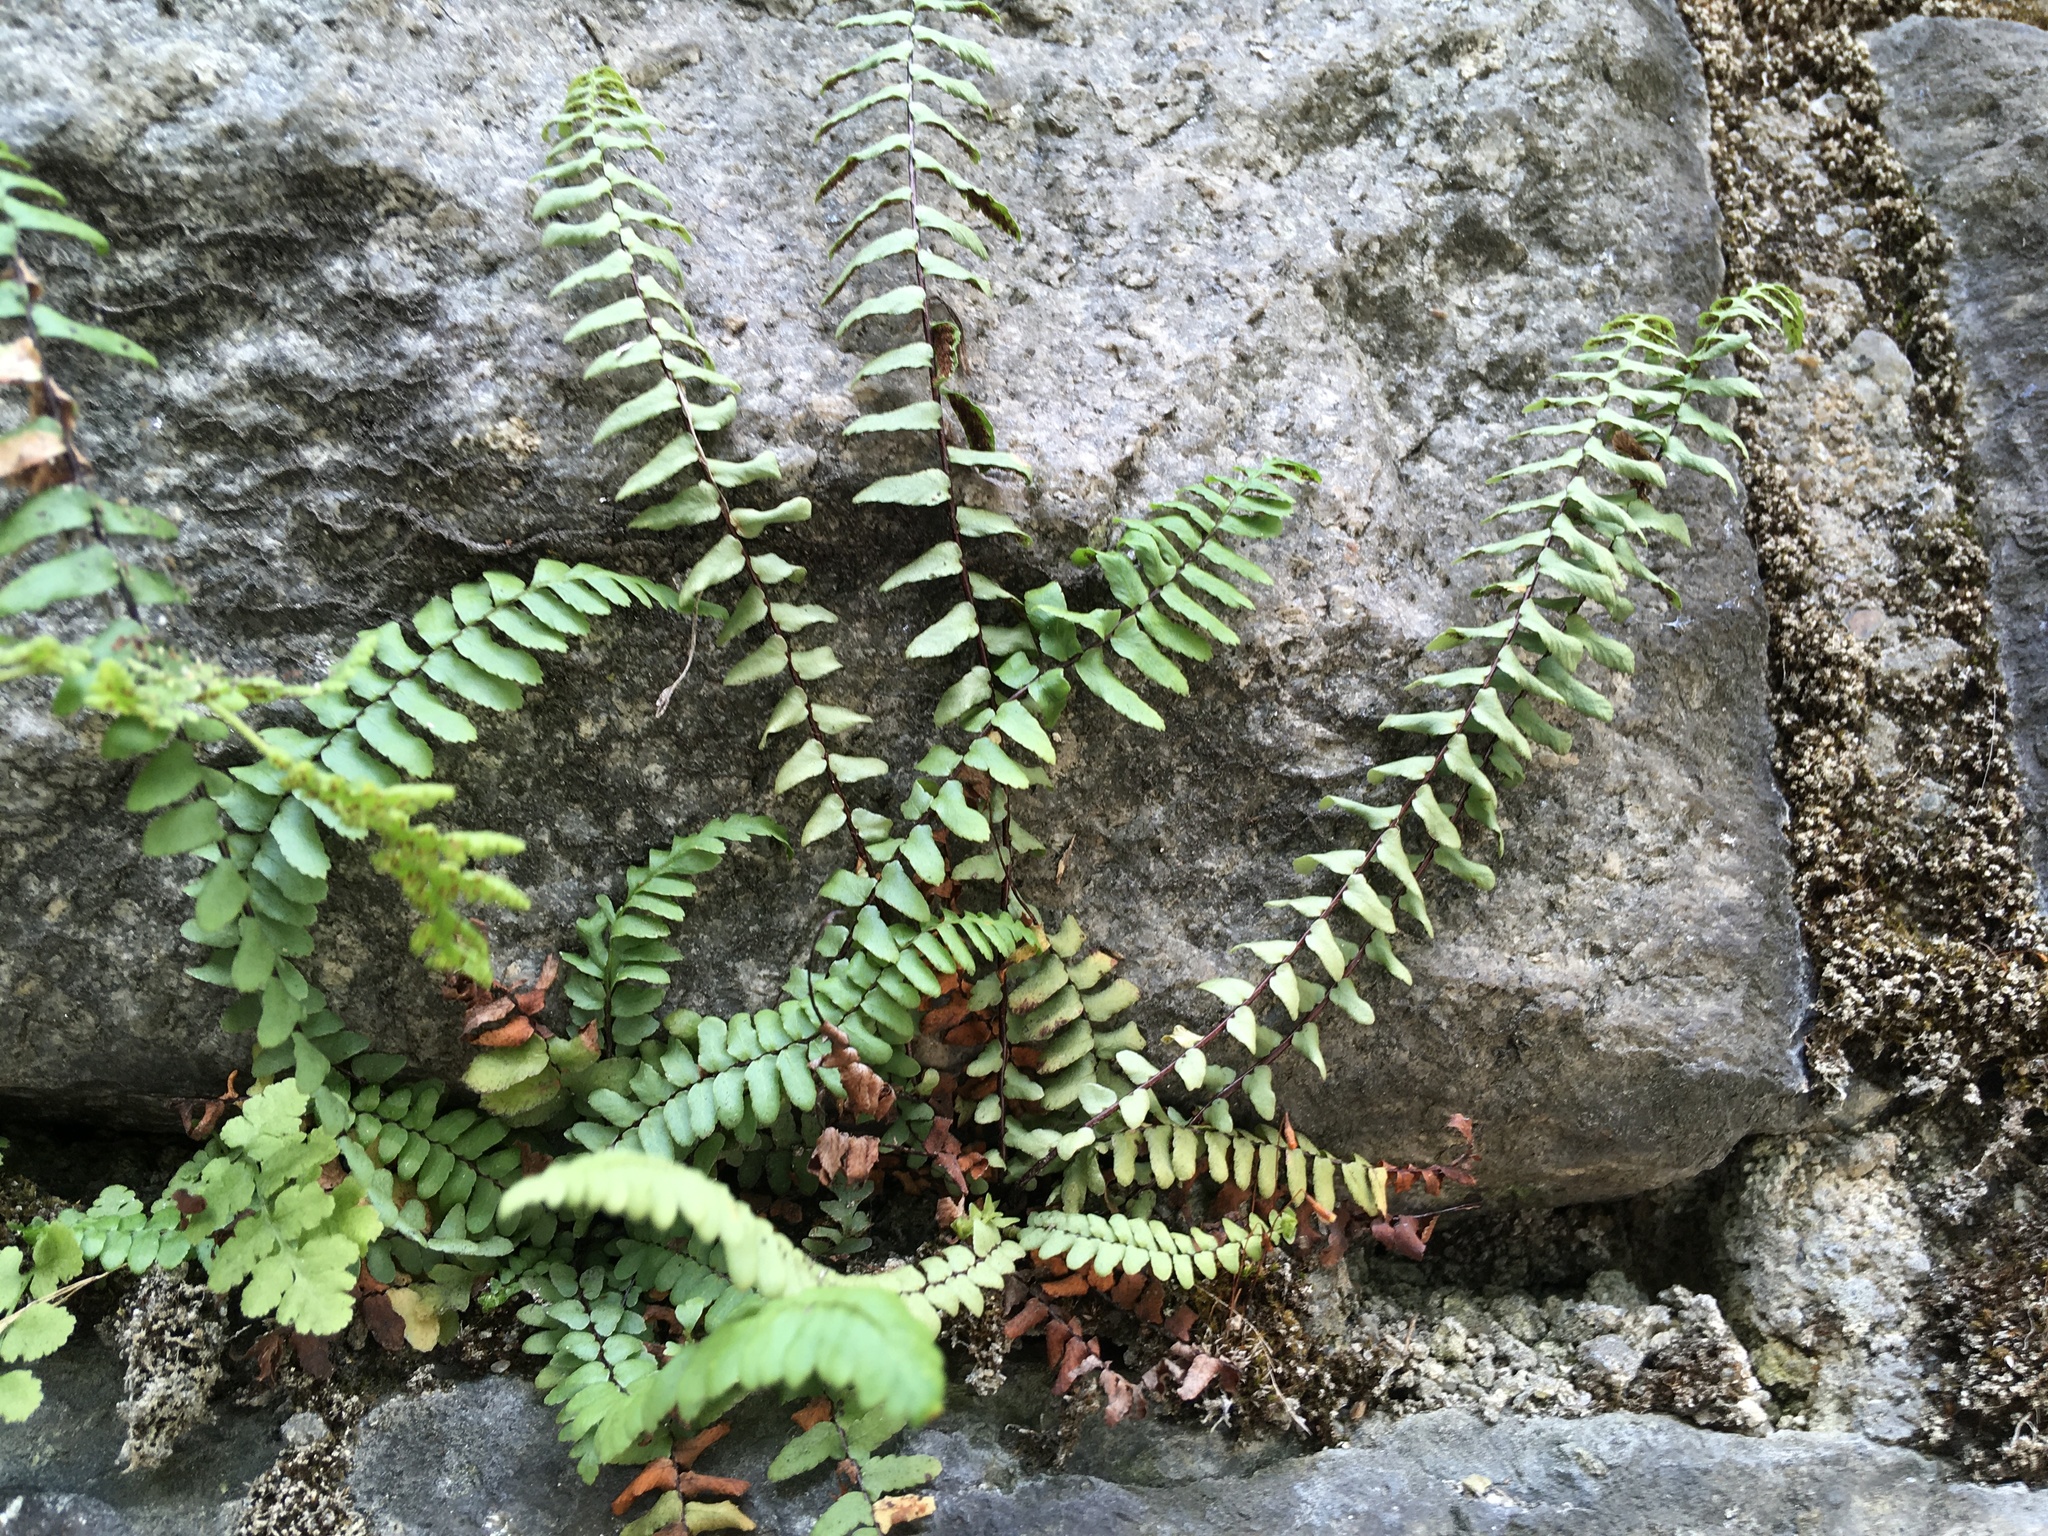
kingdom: Plantae
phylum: Tracheophyta
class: Polypodiopsida
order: Polypodiales
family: Aspleniaceae
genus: Asplenium
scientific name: Asplenium platyneuron
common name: Ebony spleenwort
